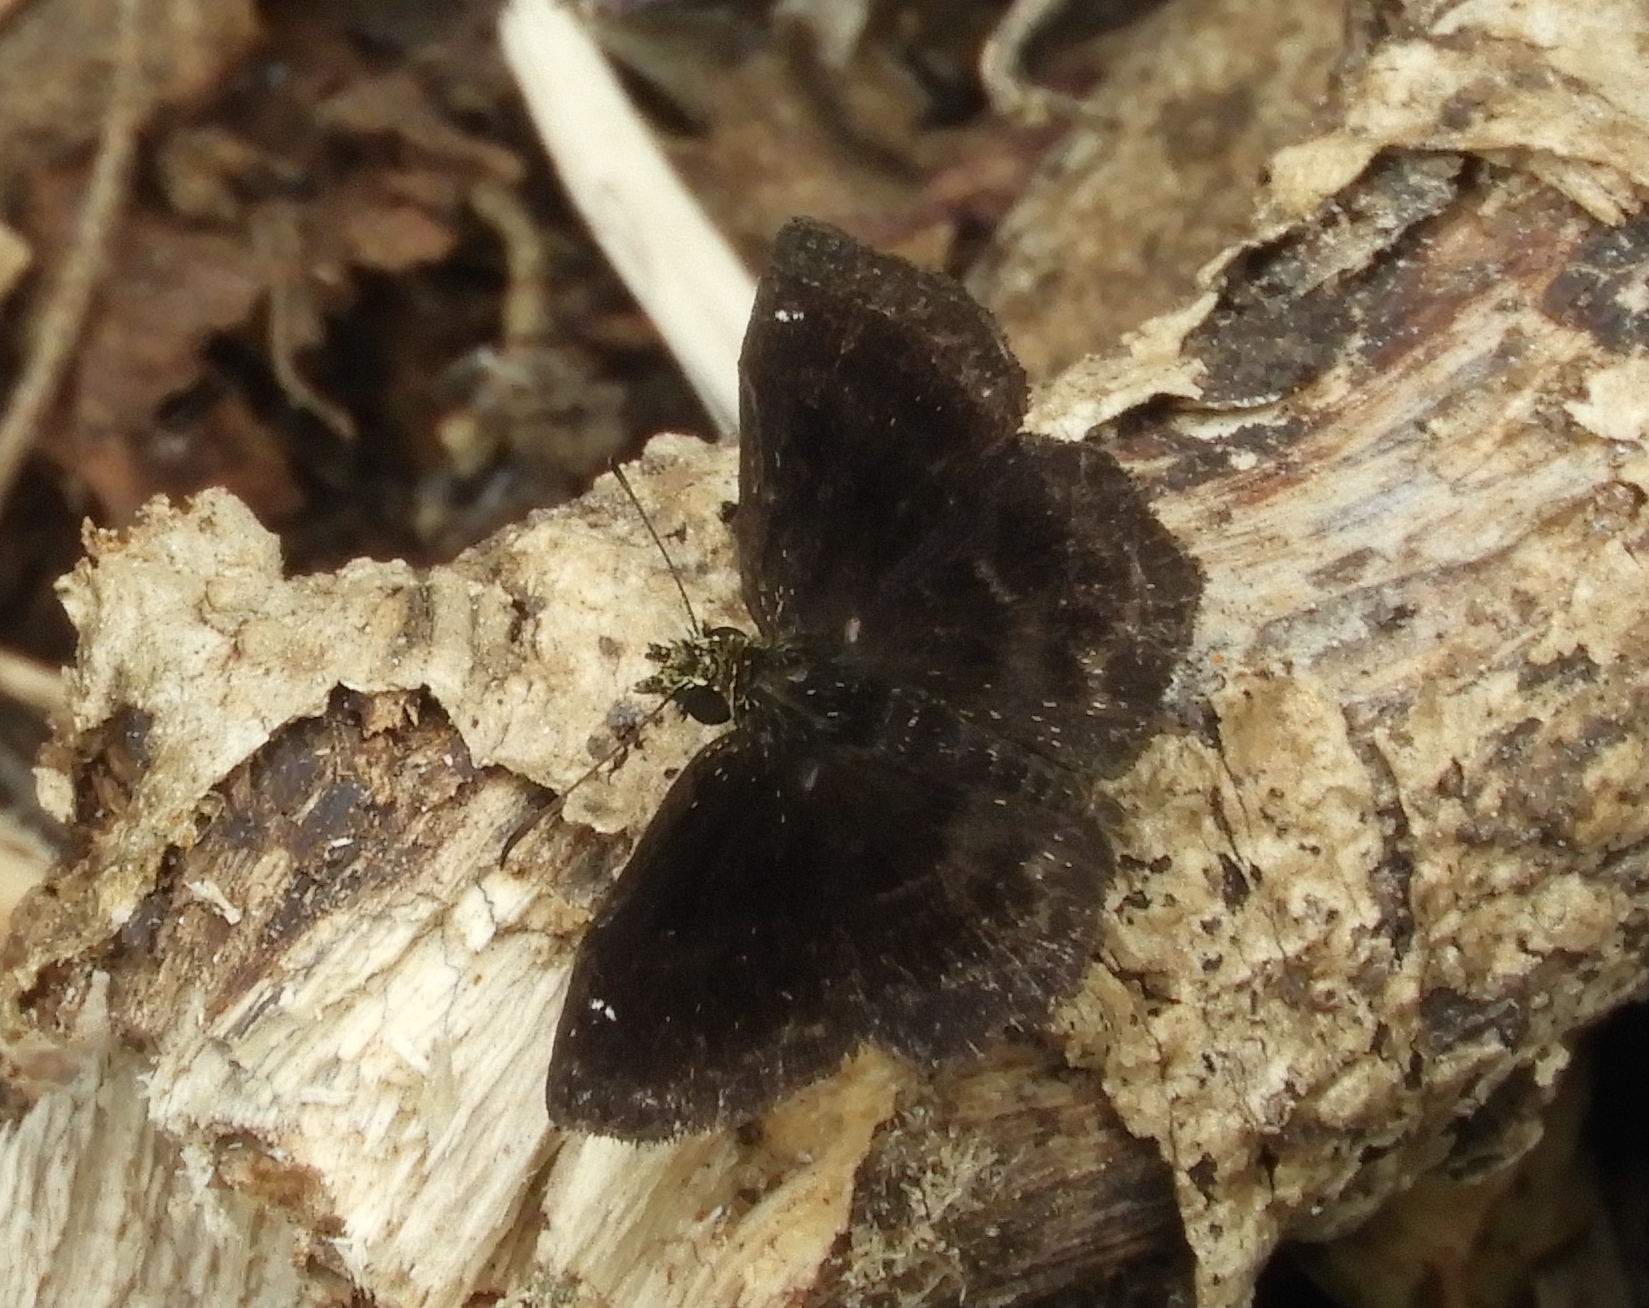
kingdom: Animalia
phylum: Arthropoda
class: Insecta
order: Lepidoptera
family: Hesperiidae
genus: Staphylus
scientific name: Staphylus mazans
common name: Mazans scallopwing
